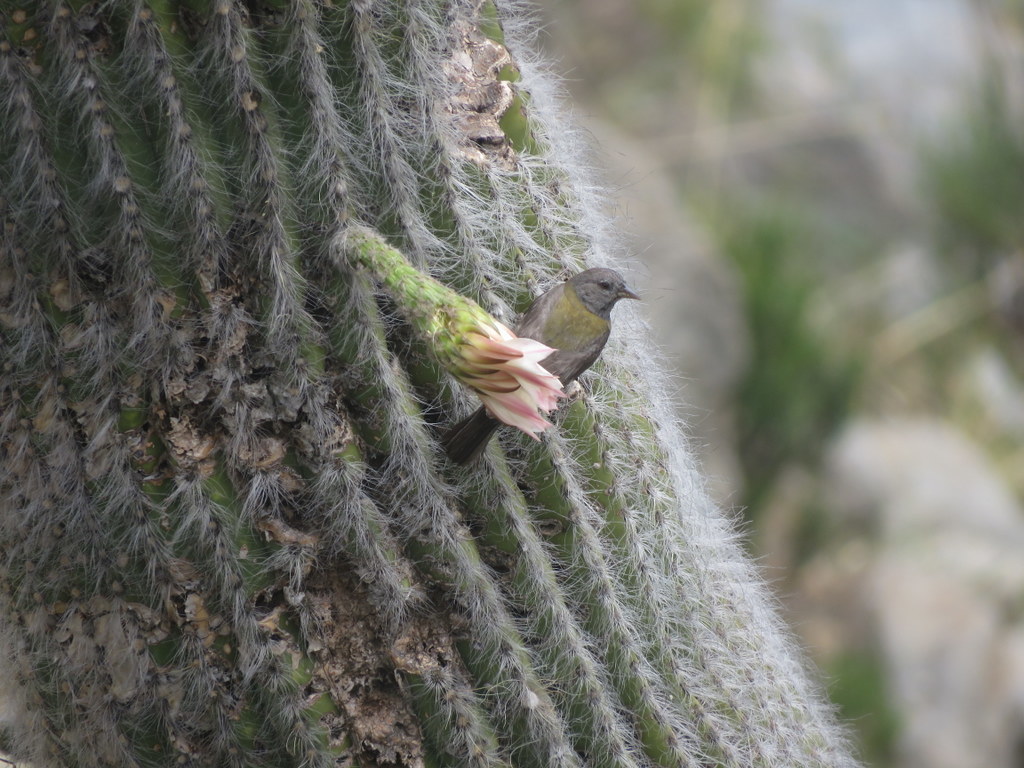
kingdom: Animalia
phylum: Chordata
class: Aves
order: Passeriformes
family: Thraupidae
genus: Phrygilus
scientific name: Phrygilus gayi
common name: Grey-hooded sierra finch
